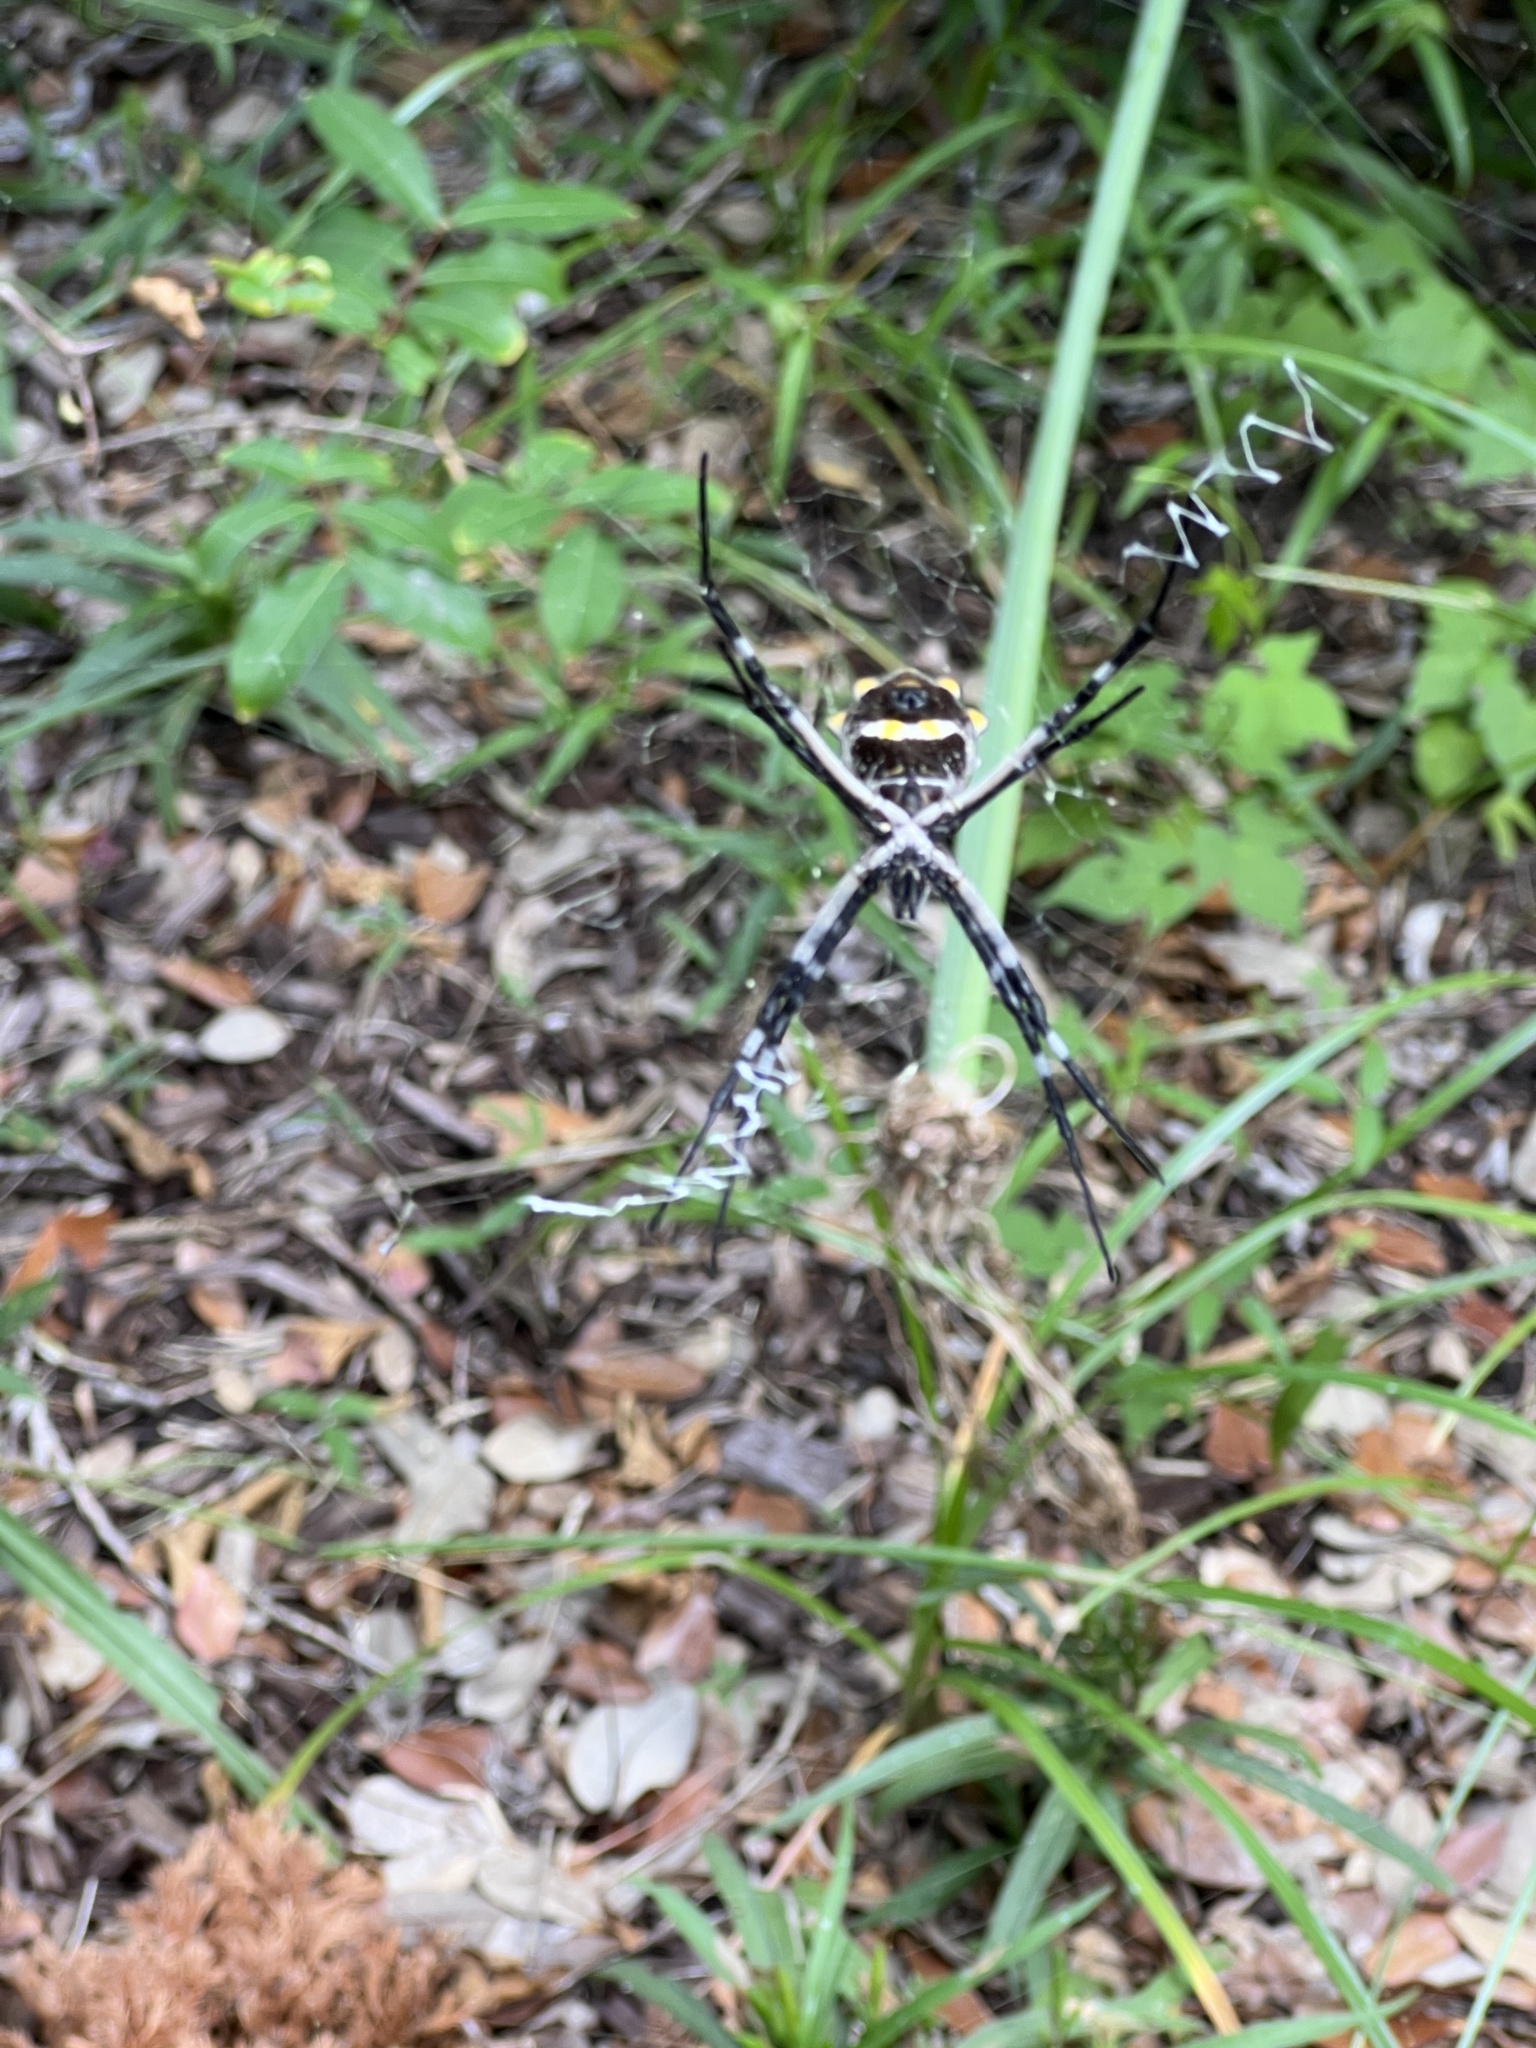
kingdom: Animalia
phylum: Arthropoda
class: Arachnida
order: Araneae
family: Araneidae
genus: Argiope
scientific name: Argiope argentata
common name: Orb weavers
